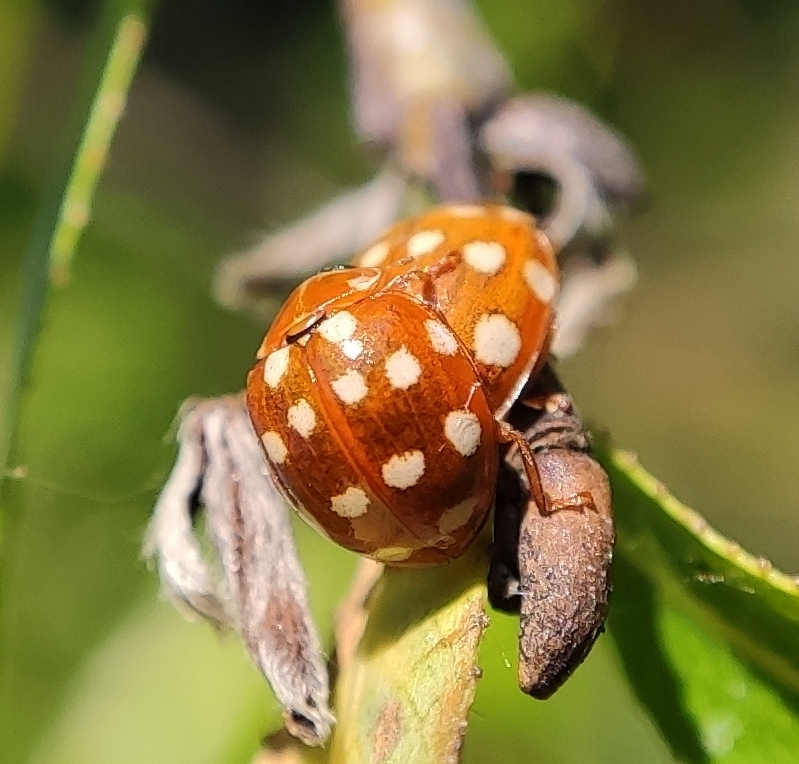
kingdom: Animalia
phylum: Arthropoda
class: Insecta
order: Coleoptera
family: Coccinellidae
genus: Calvia
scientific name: Calvia quatuordecimguttata
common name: Cream-spot ladybird
